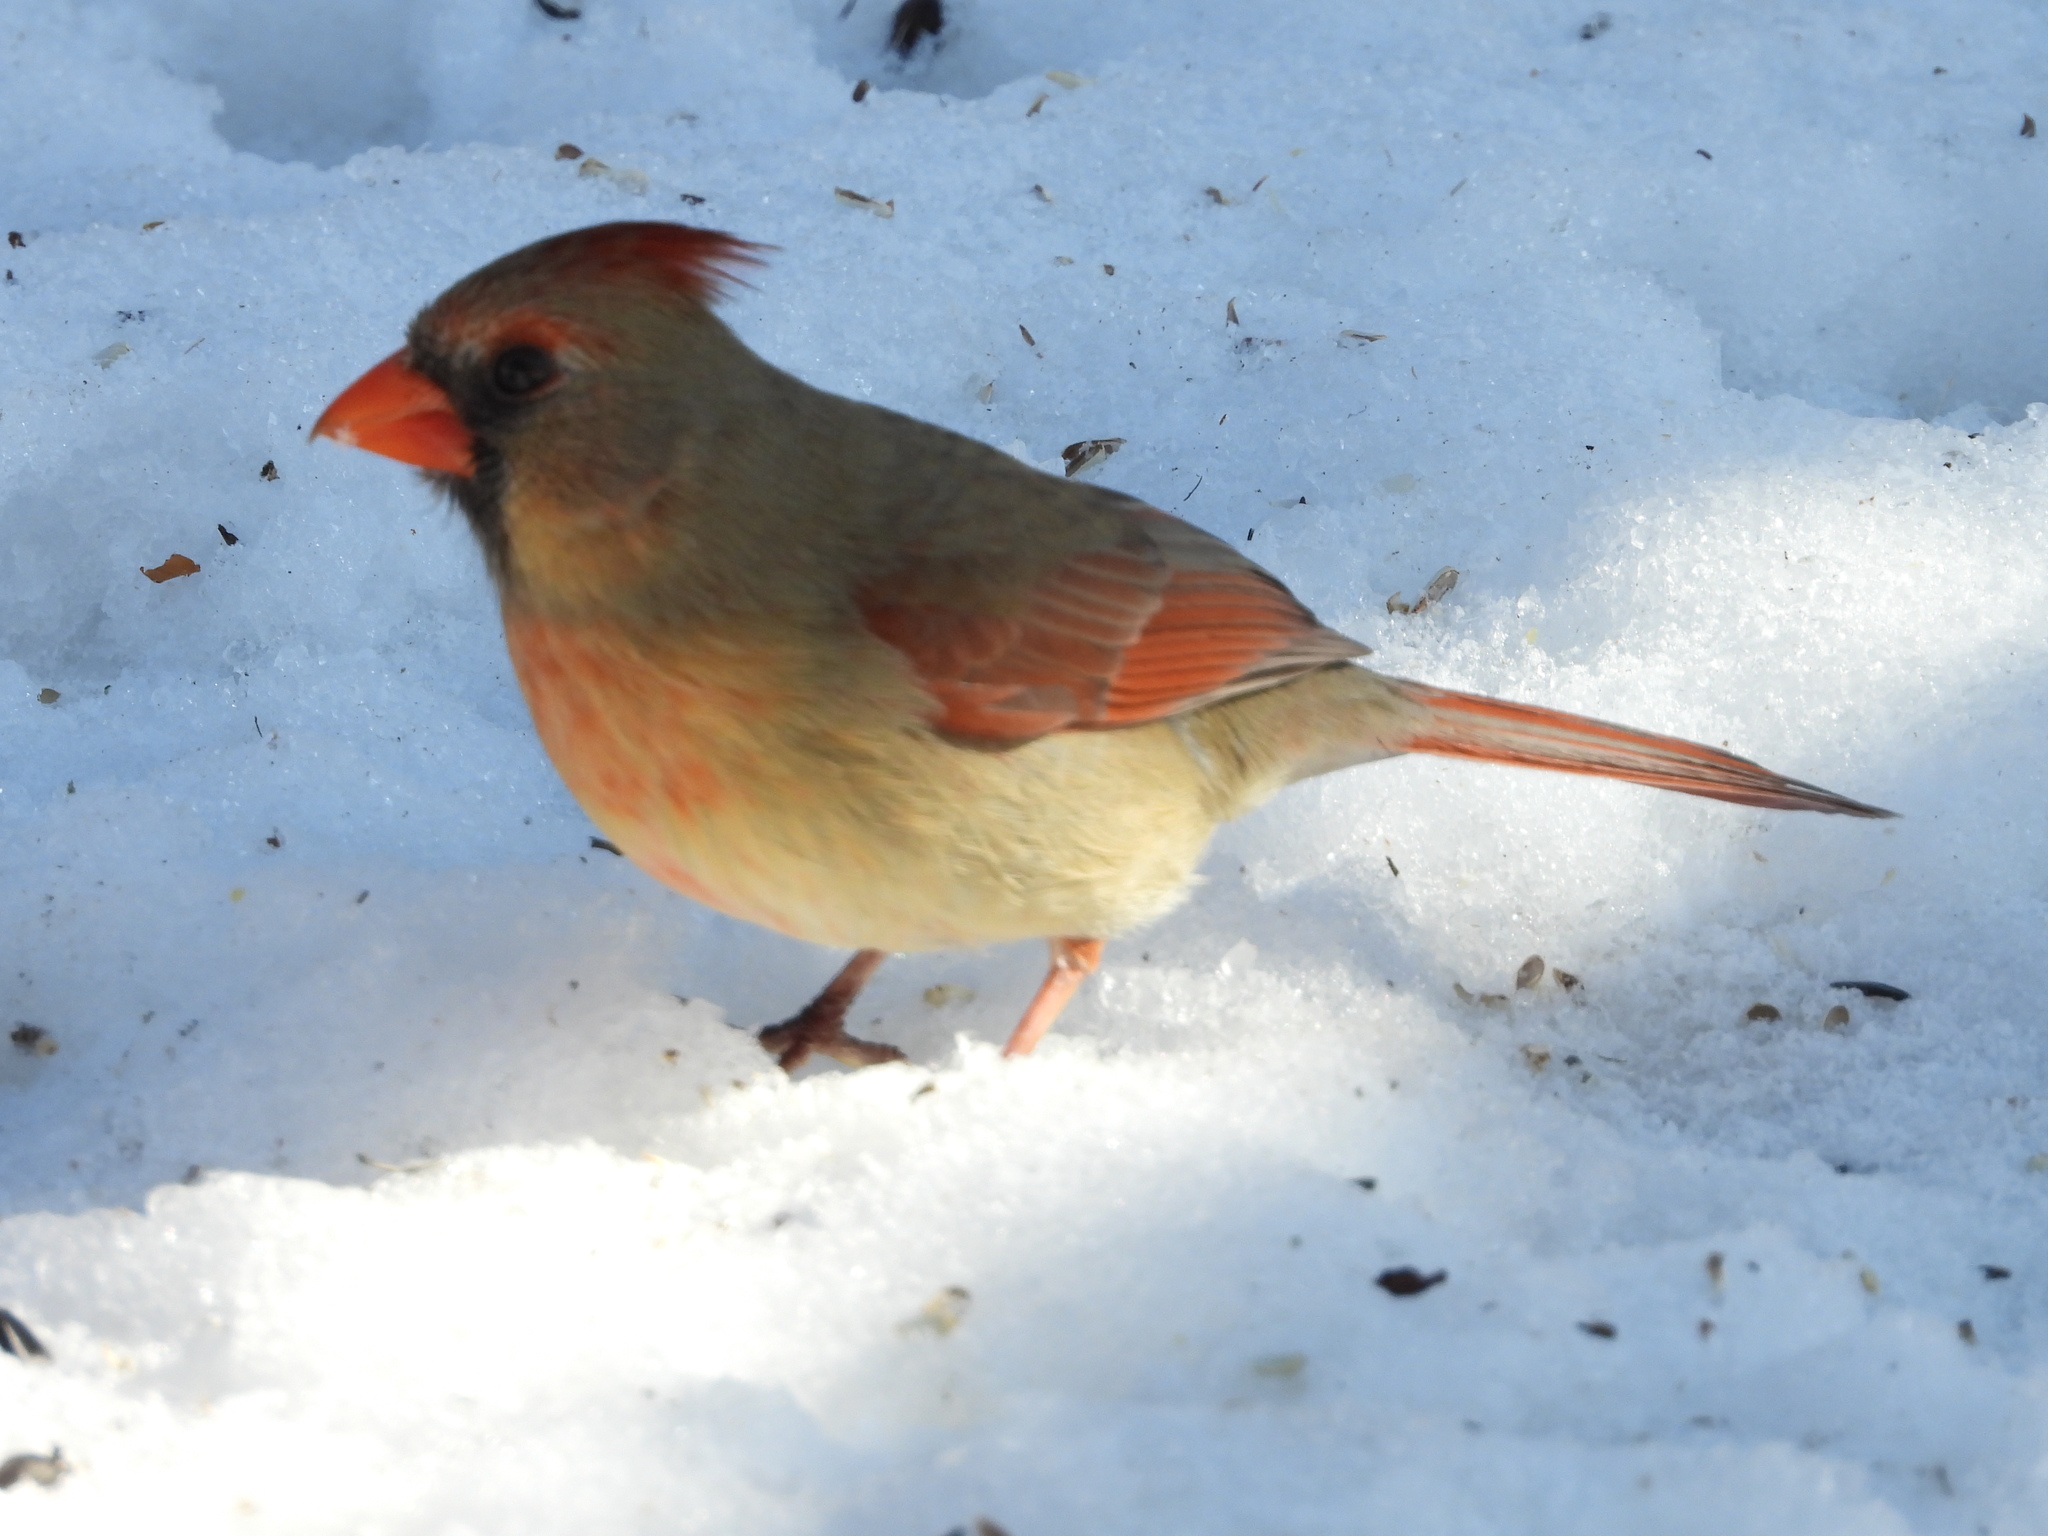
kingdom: Animalia
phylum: Chordata
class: Aves
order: Passeriformes
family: Cardinalidae
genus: Cardinalis
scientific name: Cardinalis cardinalis
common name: Northern cardinal
